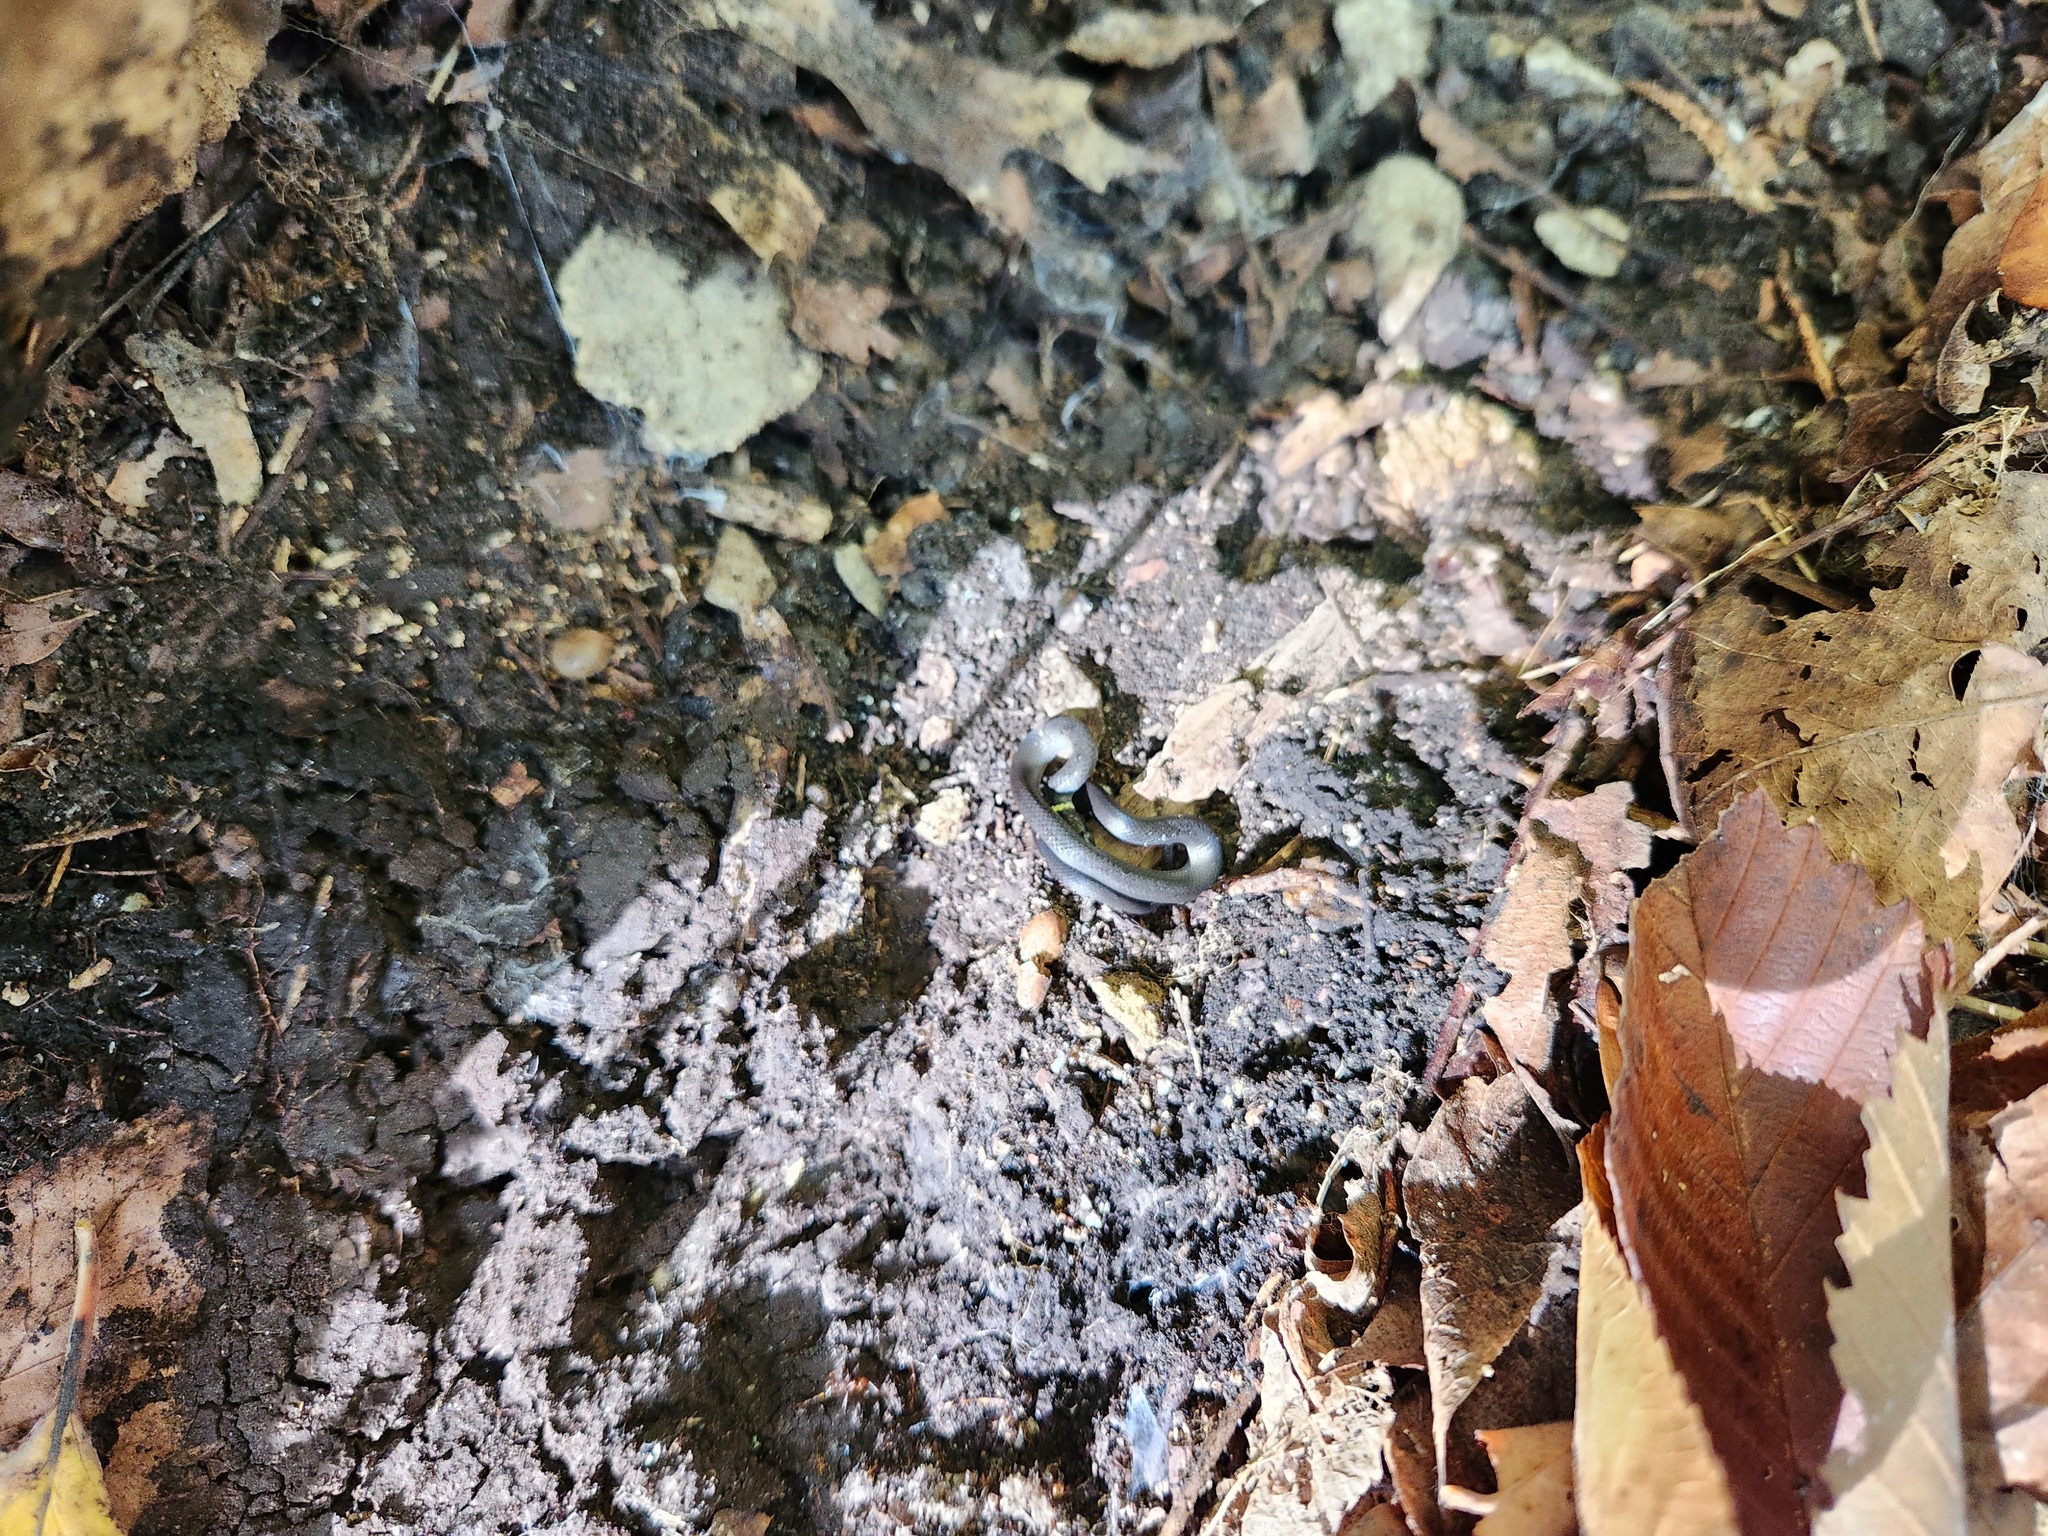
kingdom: Animalia
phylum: Chordata
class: Squamata
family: Colubridae
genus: Diadophis
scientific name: Diadophis punctatus
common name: Ringneck snake
